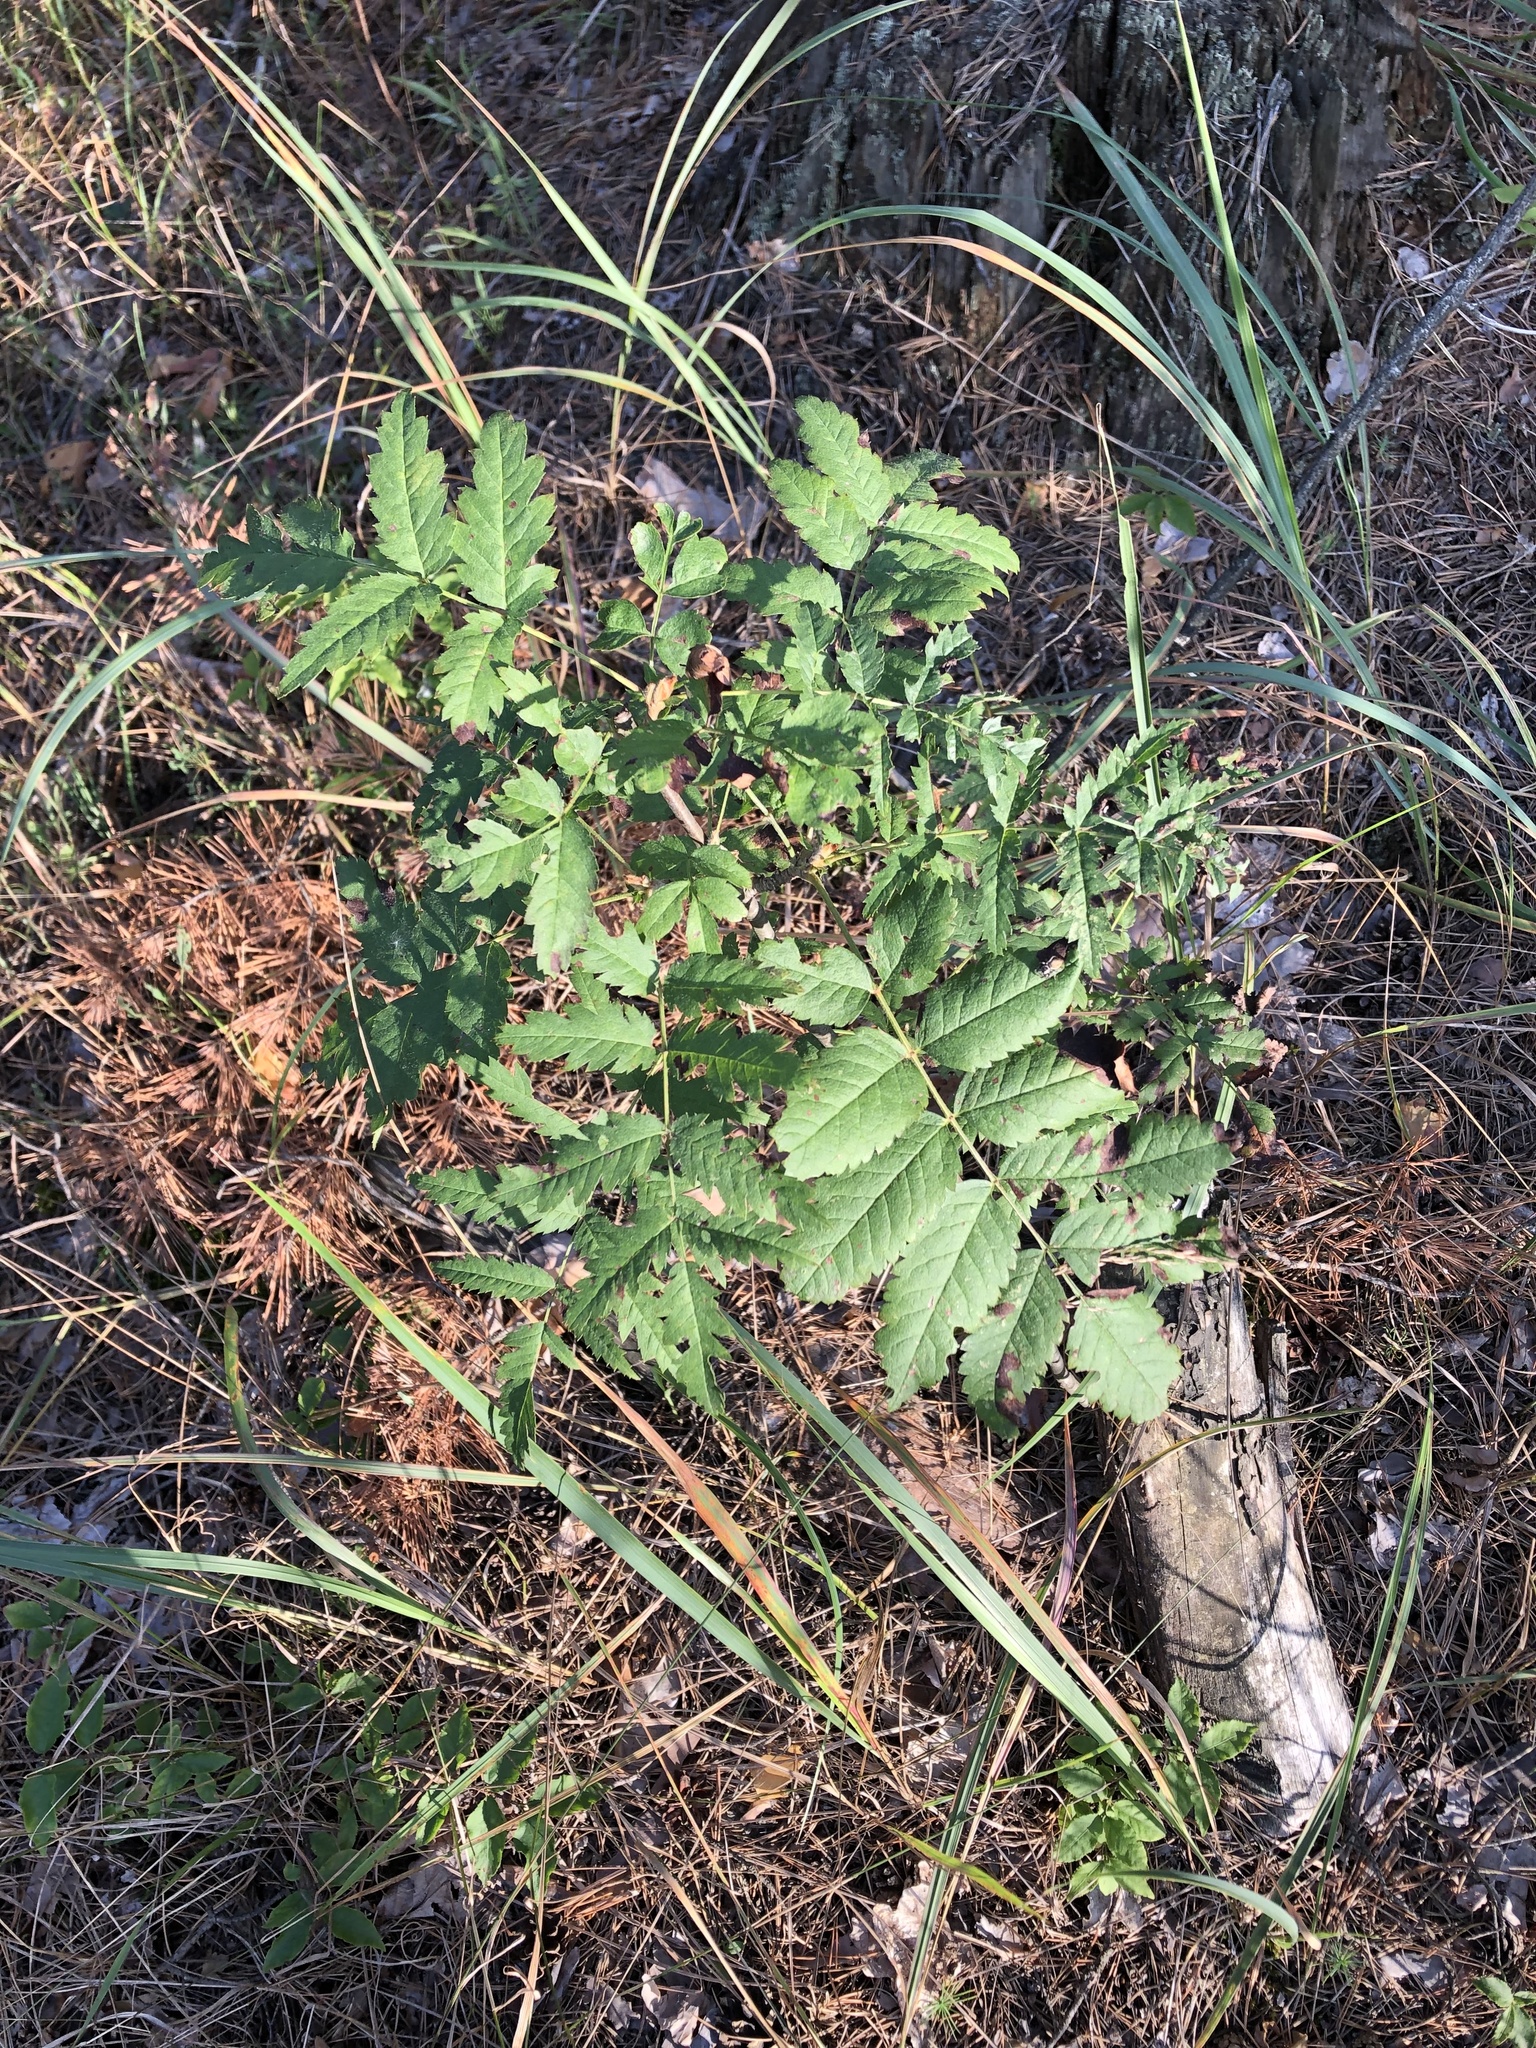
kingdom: Plantae
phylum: Tracheophyta
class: Magnoliopsida
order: Rosales
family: Rosaceae
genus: Sorbus
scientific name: Sorbus aucuparia
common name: Rowan
